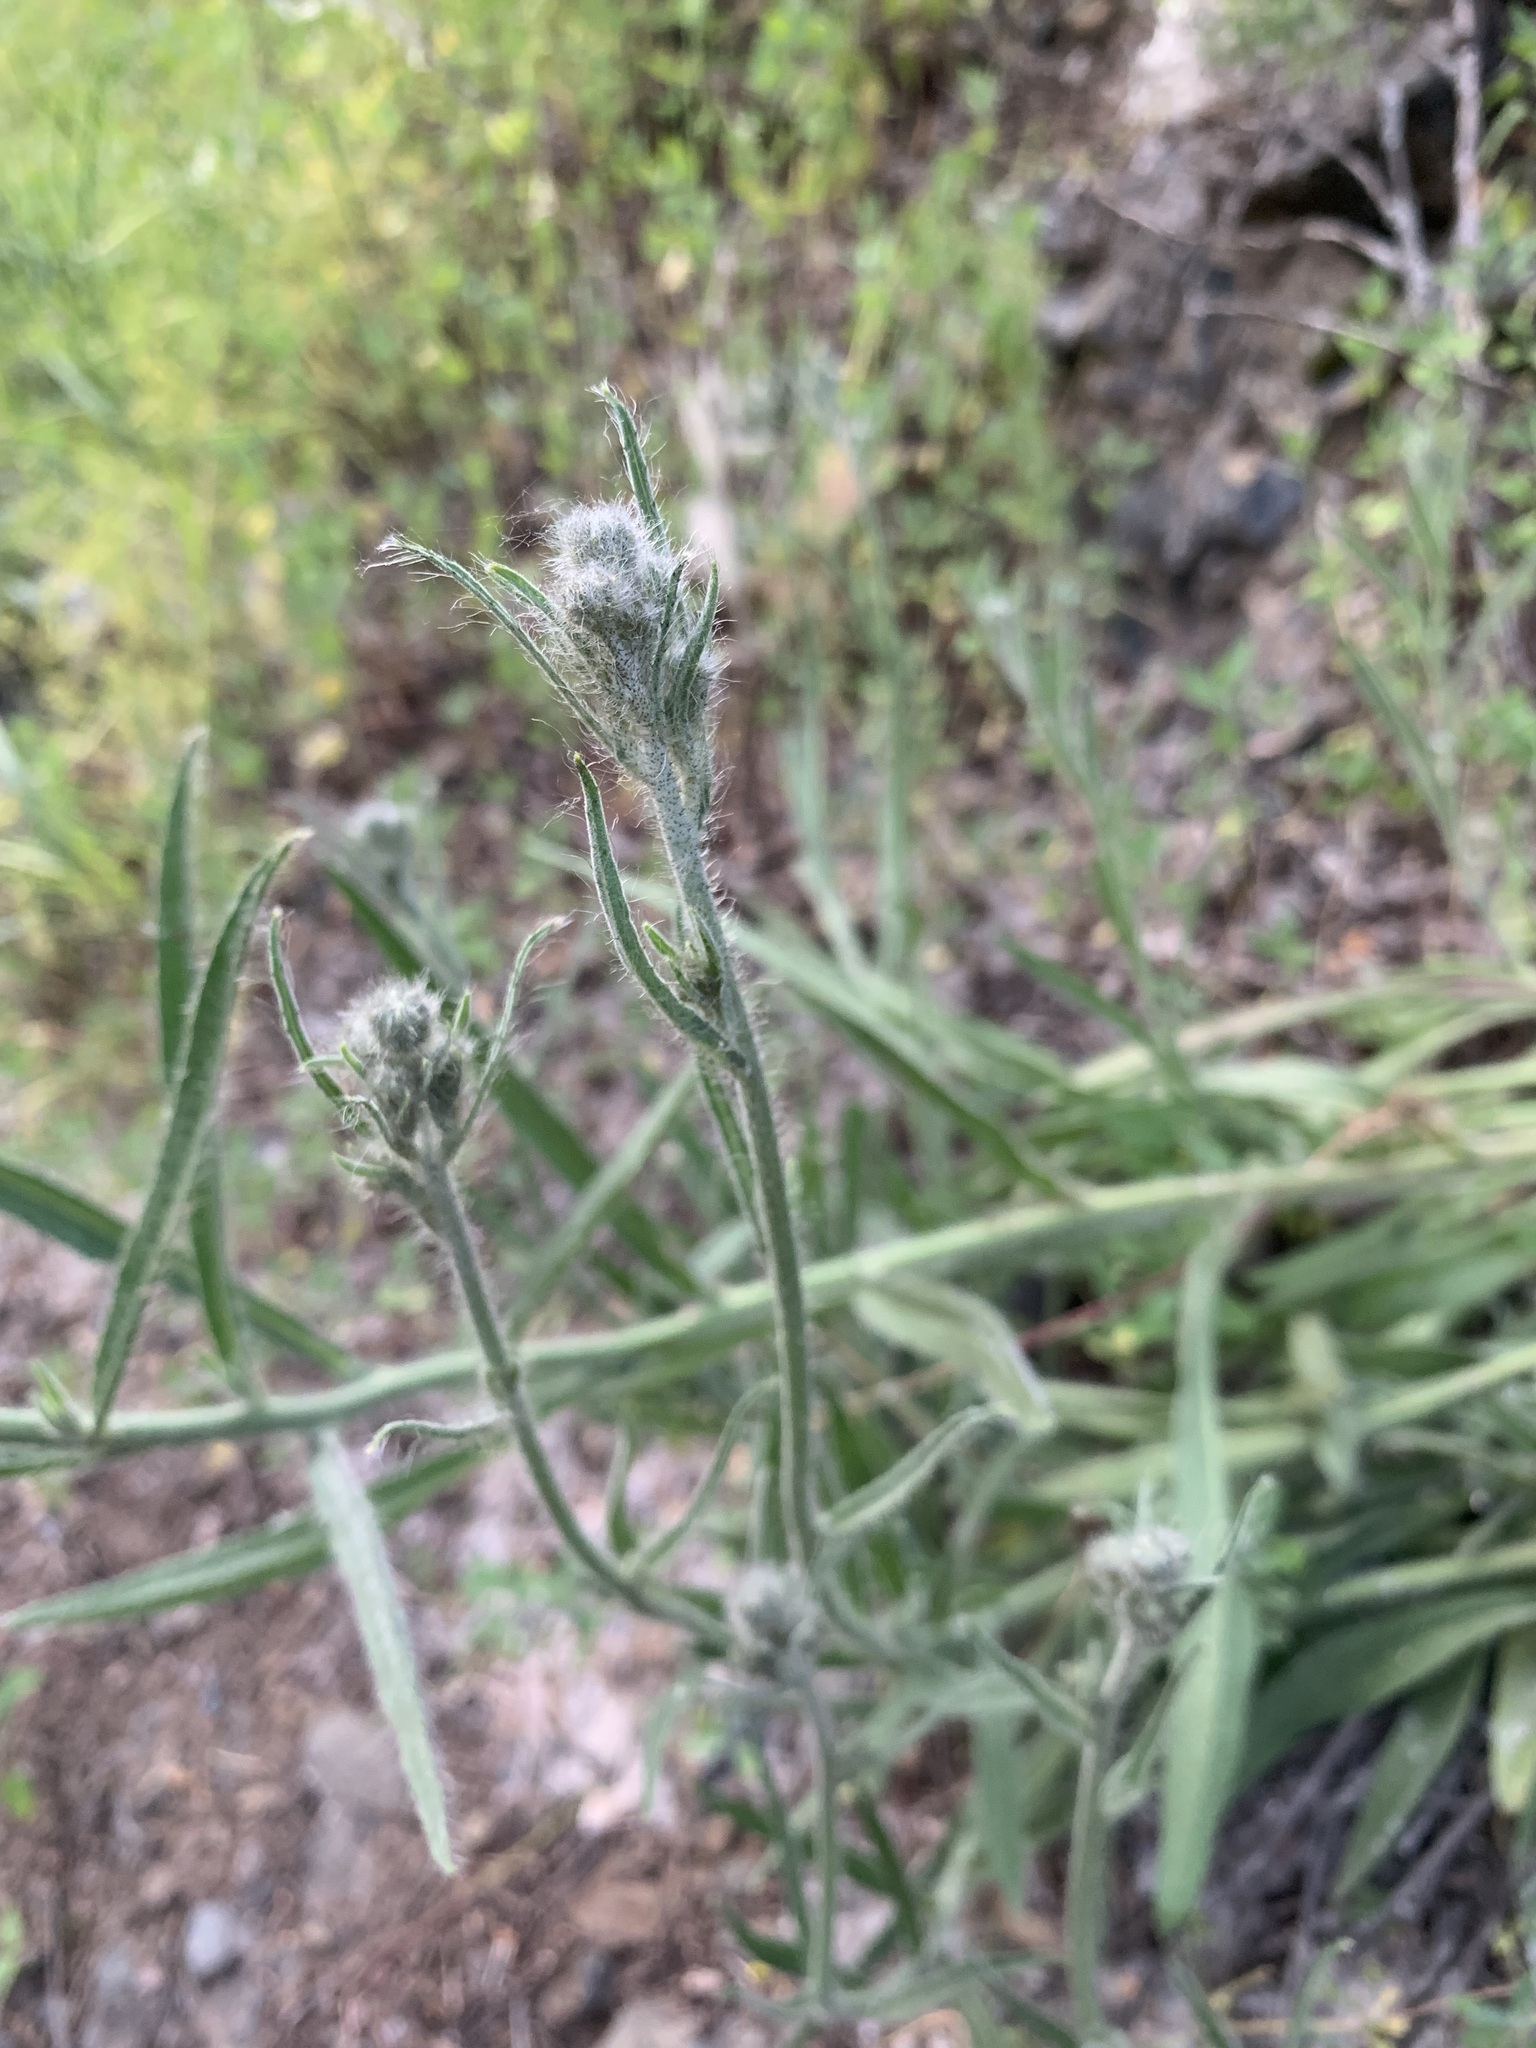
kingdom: Plantae
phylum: Tracheophyta
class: Magnoliopsida
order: Asterales
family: Asteraceae
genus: Pilosella
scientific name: Pilosella echioides
